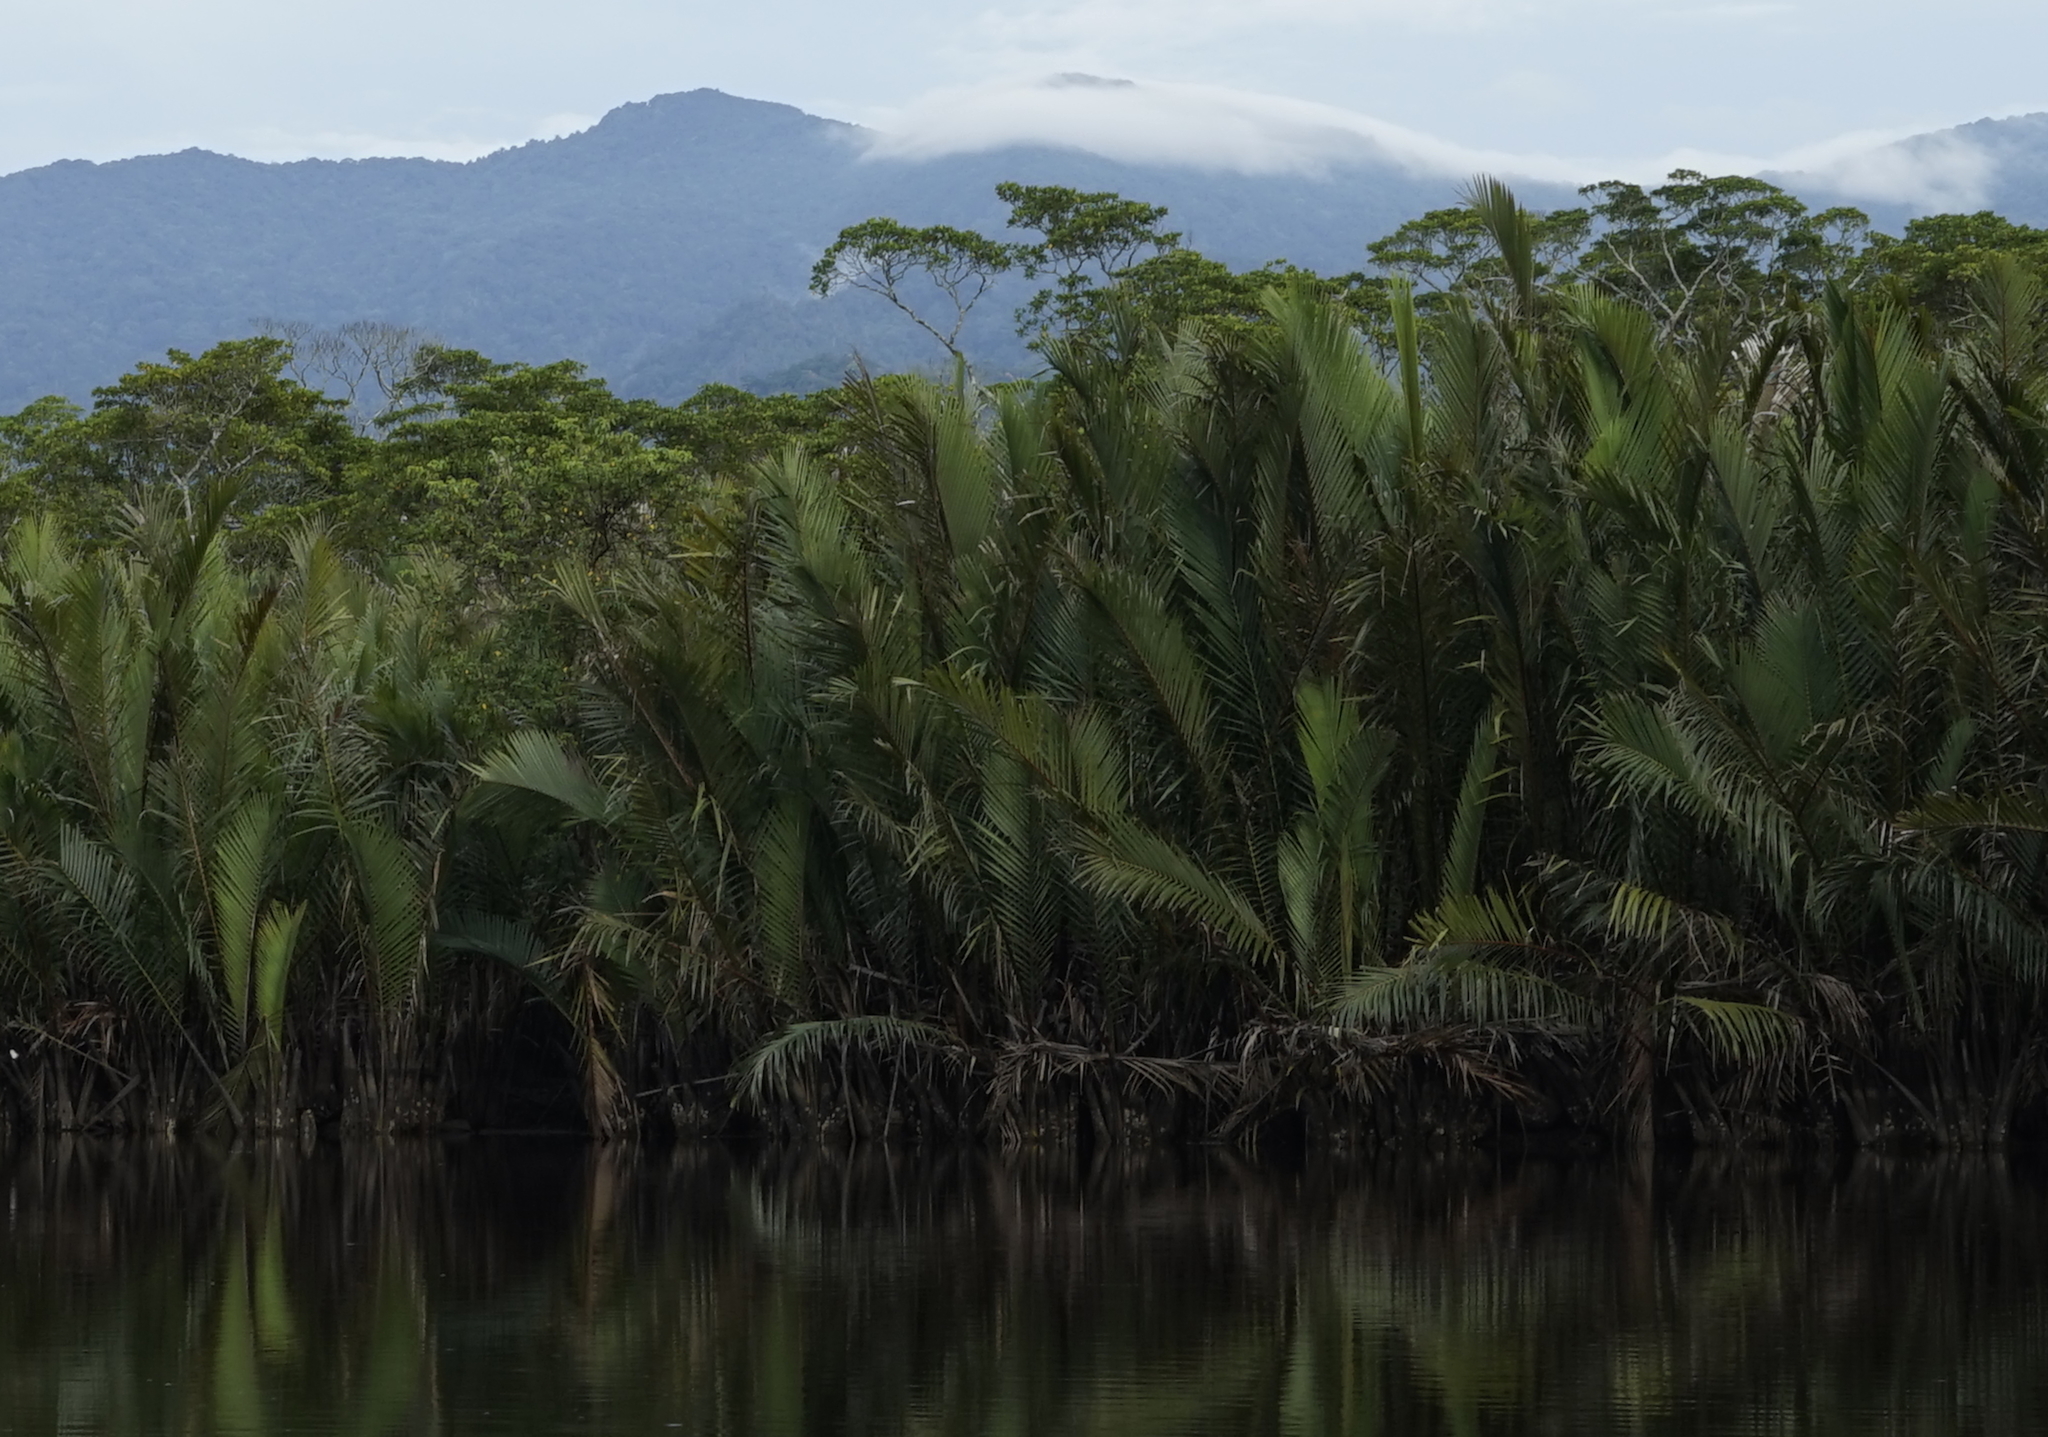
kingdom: Plantae
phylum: Tracheophyta
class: Liliopsida
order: Arecales
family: Arecaceae
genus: Nypa
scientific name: Nypa fruticans
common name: Mangrove palm
